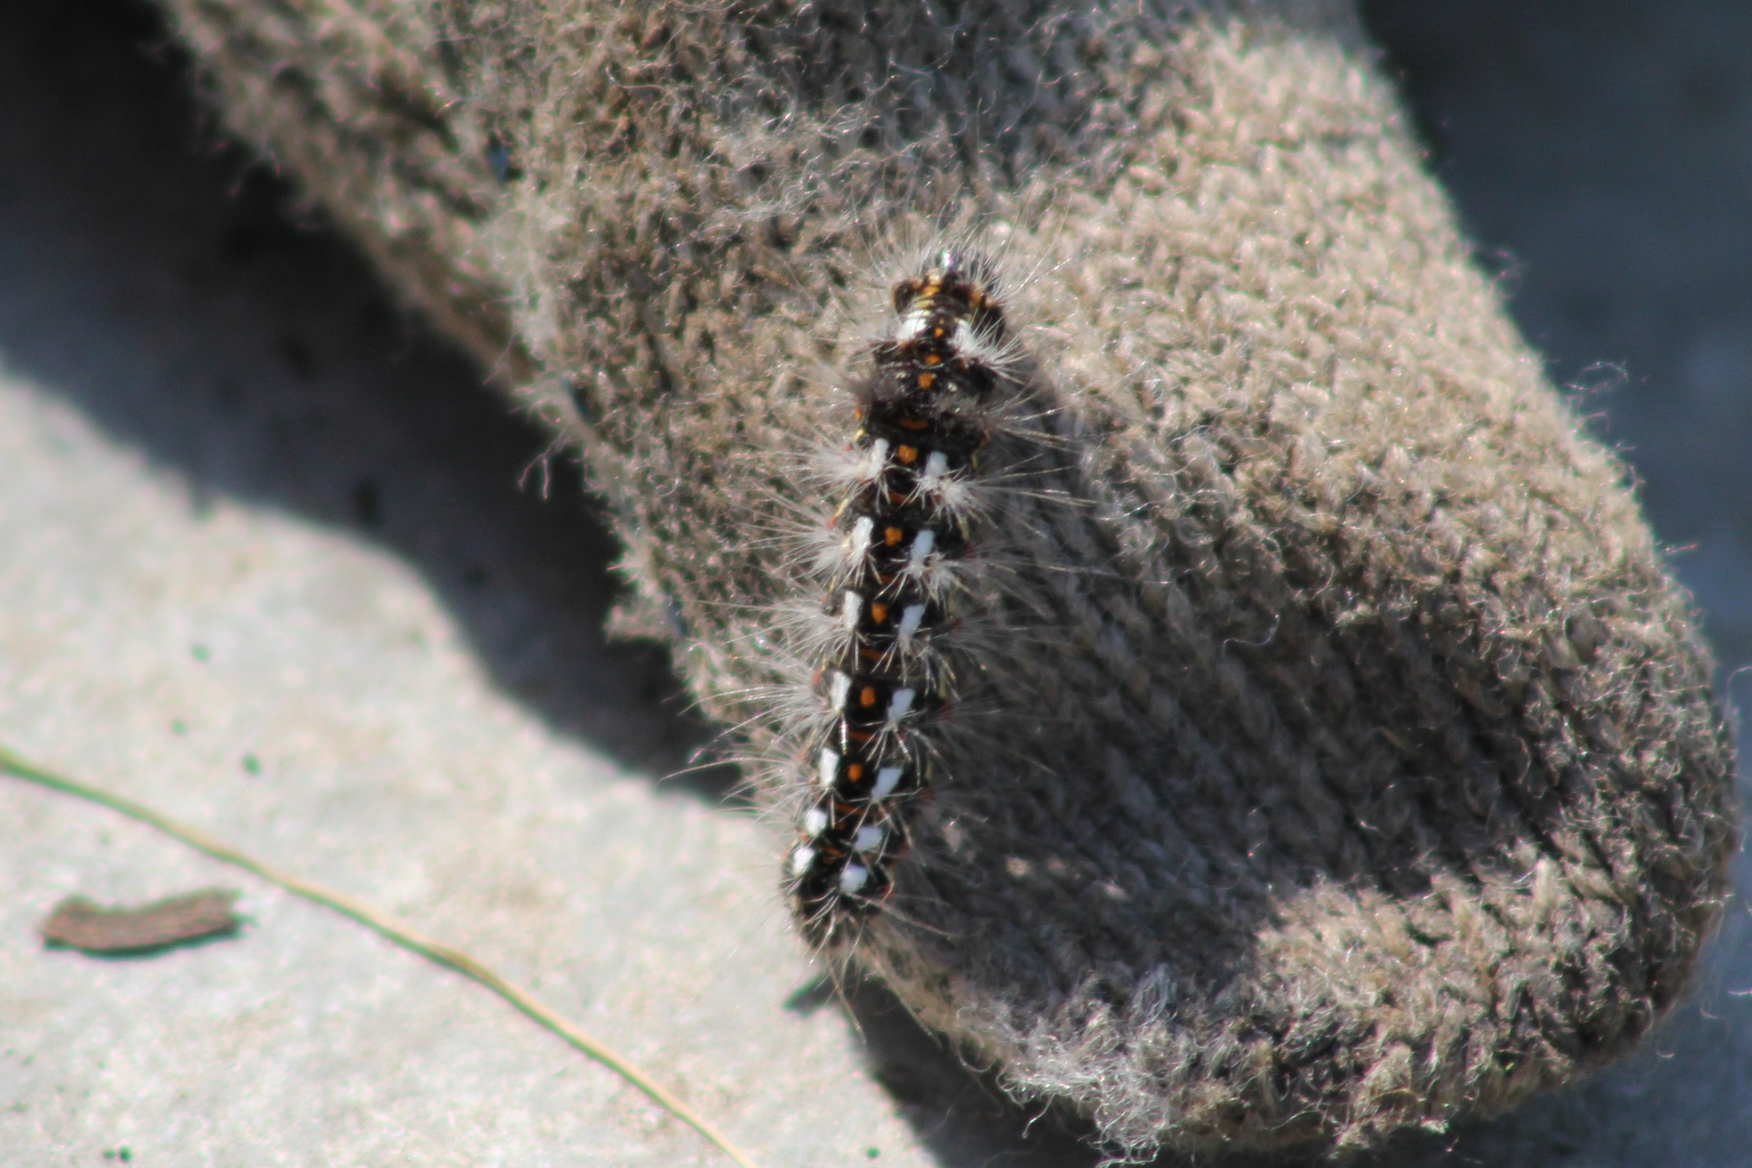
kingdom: Animalia
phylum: Arthropoda
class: Insecta
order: Lepidoptera
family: Noctuidae
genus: Acronicta
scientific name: Acronicta rumicis
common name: Knot grass
